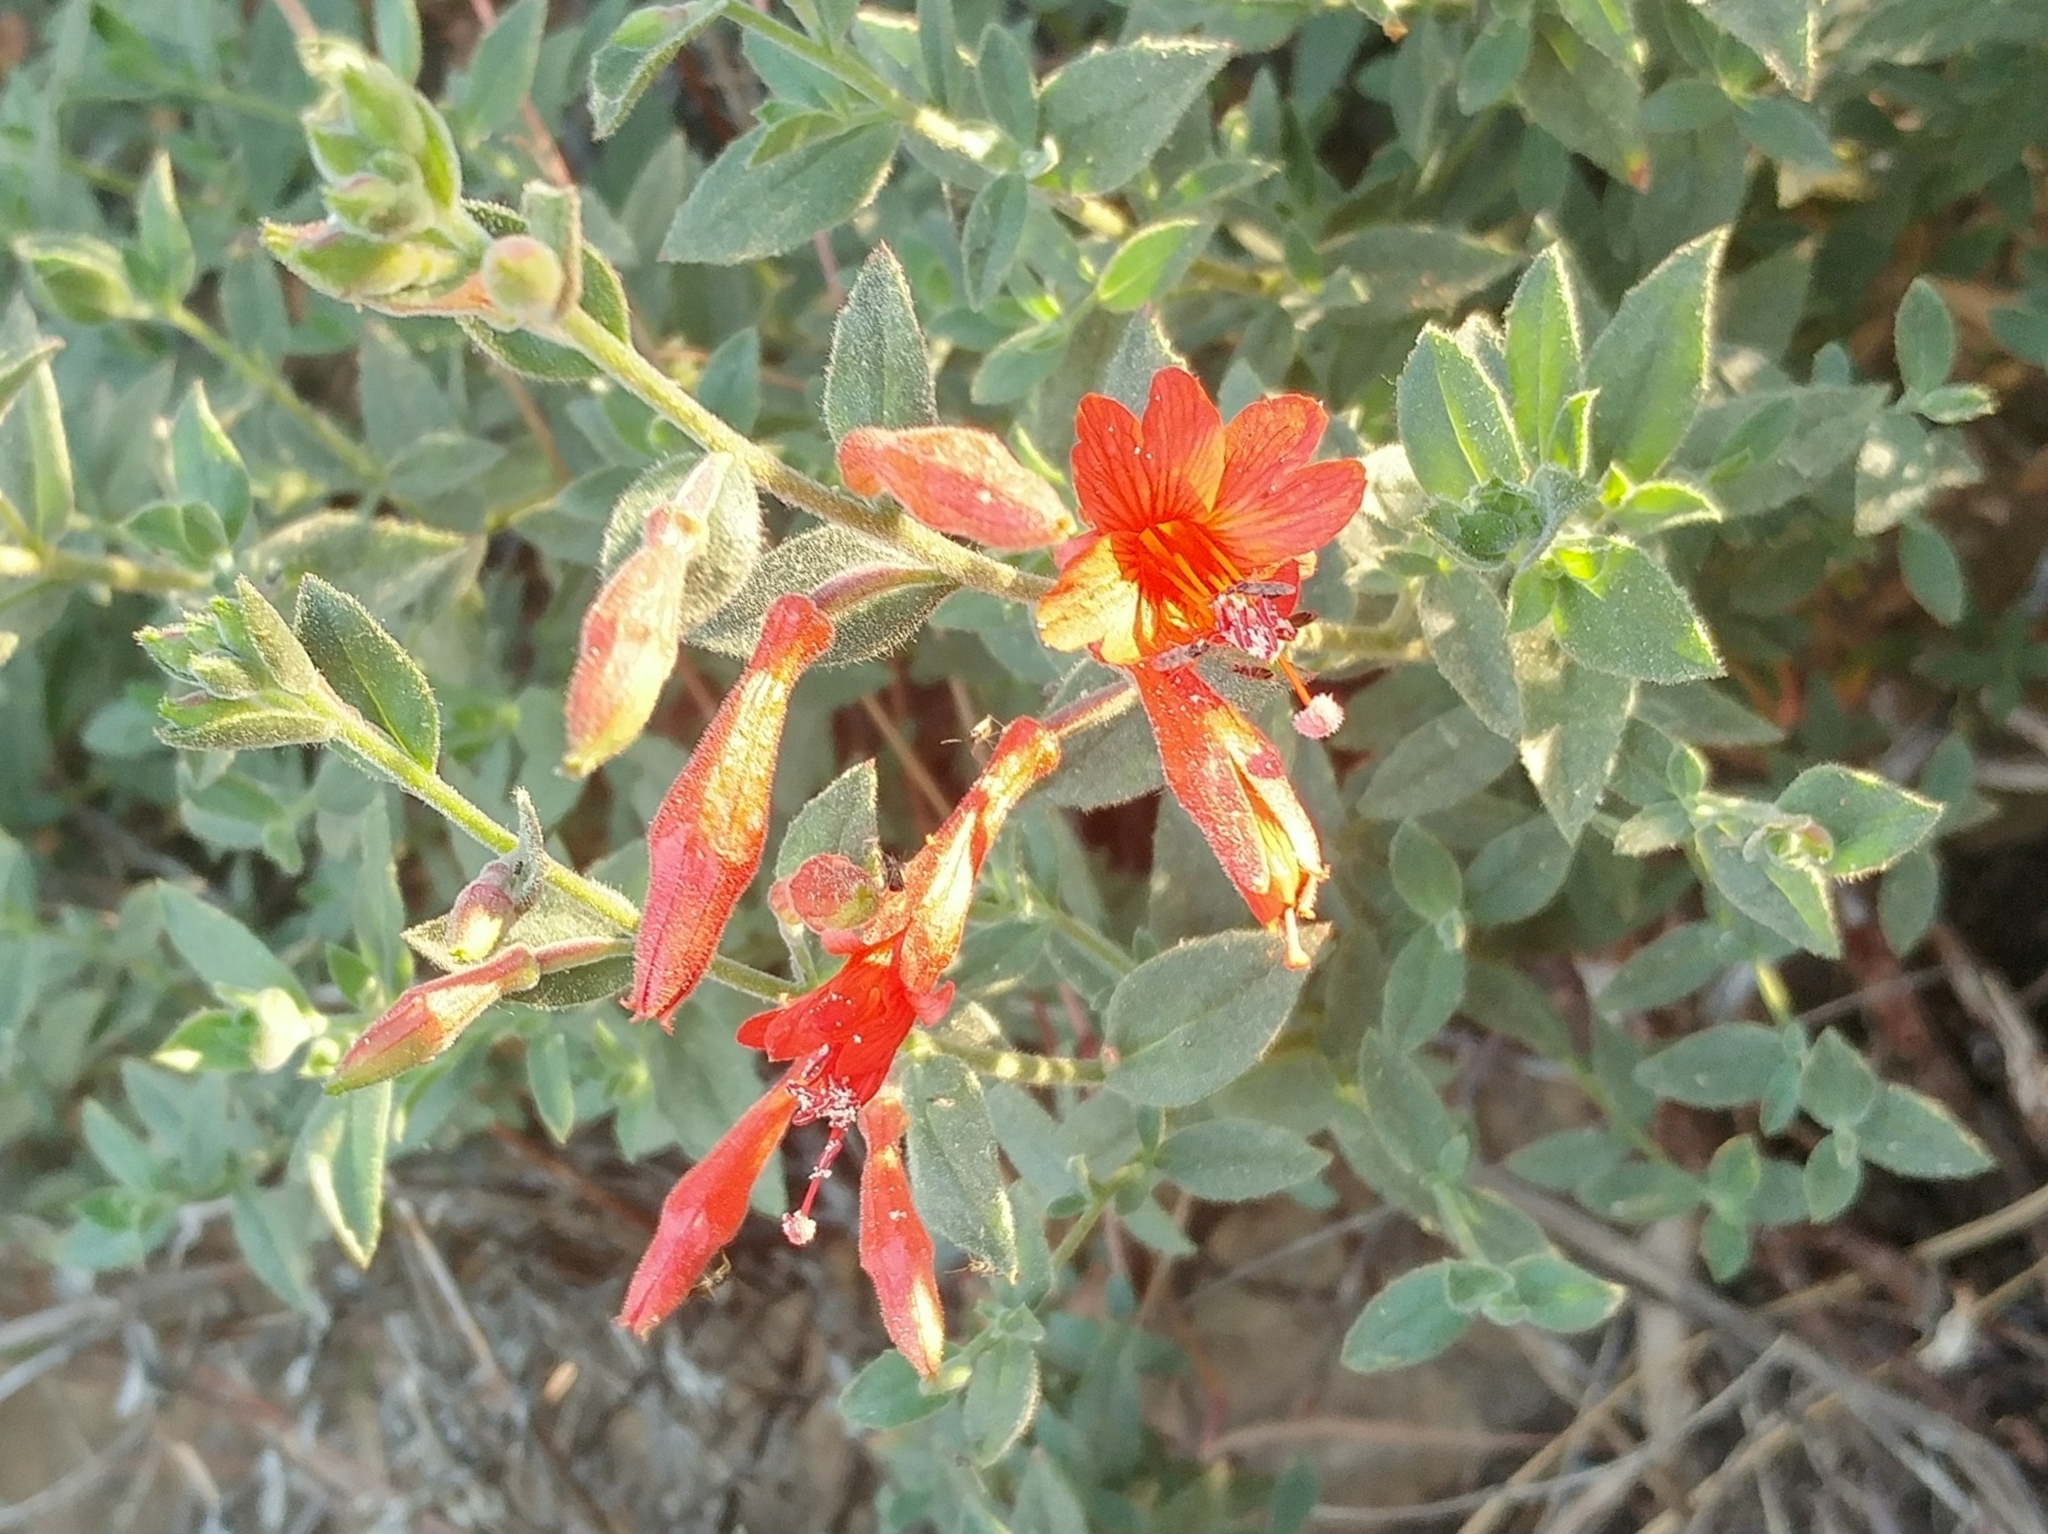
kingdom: Plantae
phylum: Tracheophyta
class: Magnoliopsida
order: Myrtales
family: Onagraceae
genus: Epilobium
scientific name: Epilobium canum
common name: California-fuchsia
